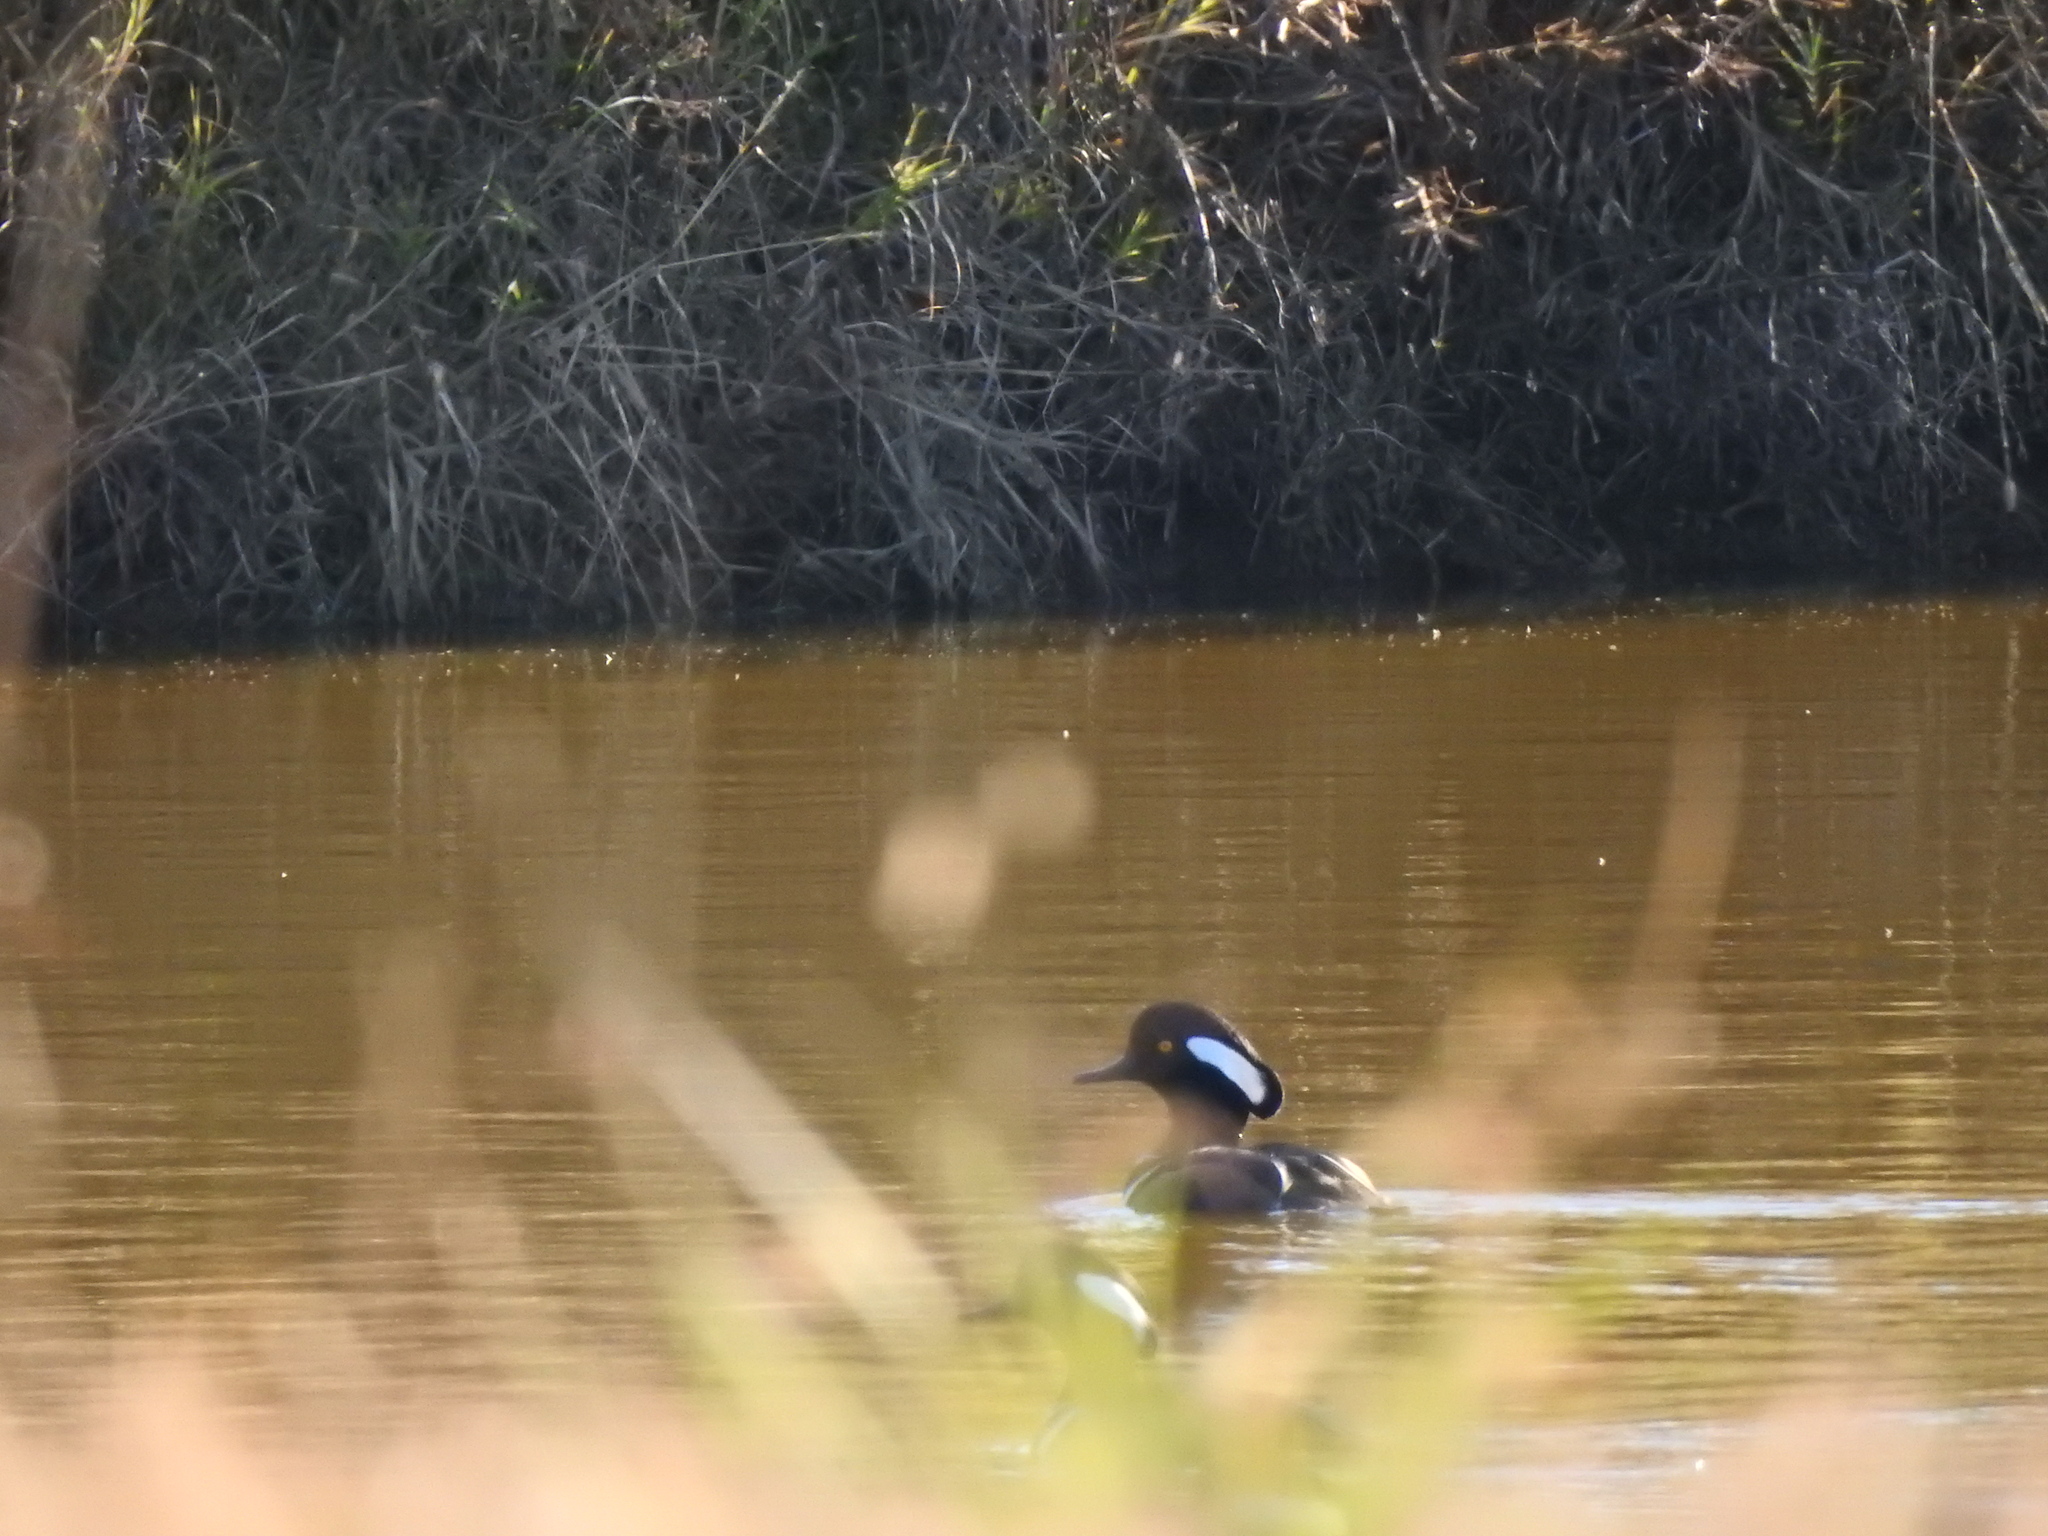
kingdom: Animalia
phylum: Chordata
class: Aves
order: Anseriformes
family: Anatidae
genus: Lophodytes
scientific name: Lophodytes cucullatus
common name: Hooded merganser
